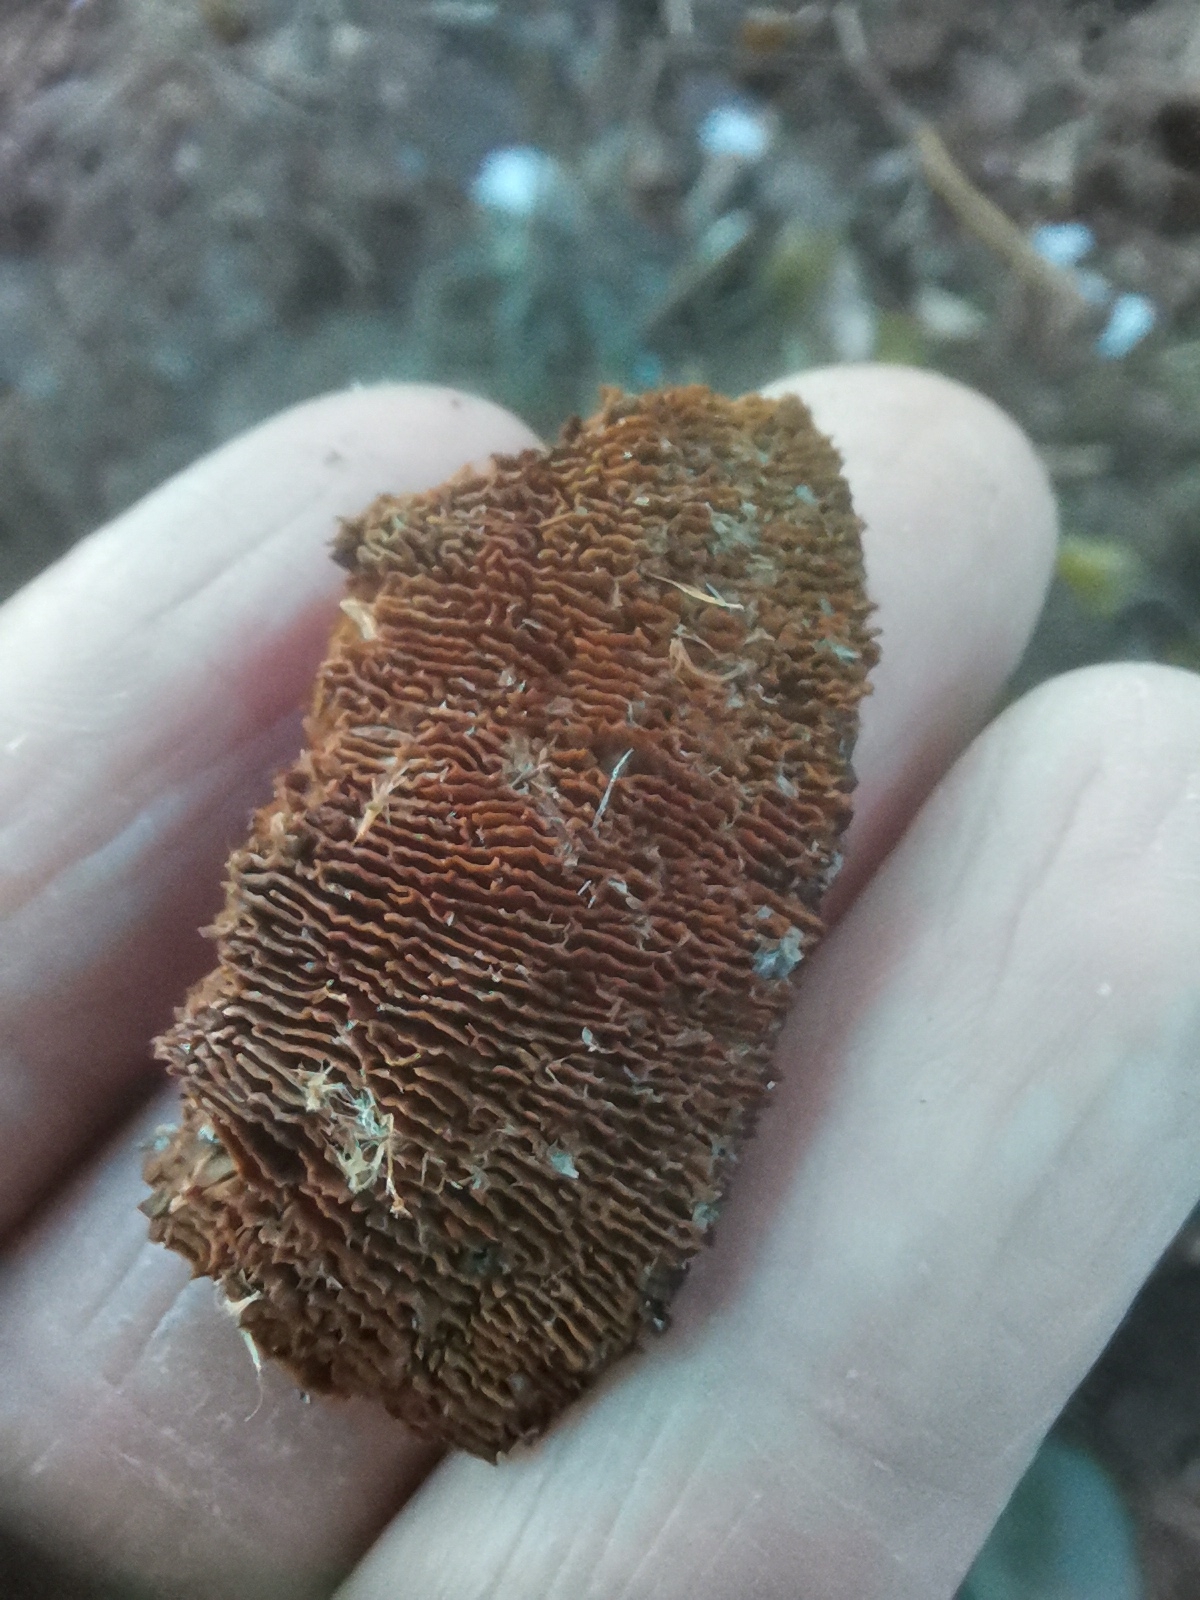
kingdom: Fungi
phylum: Basidiomycota
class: Agaricomycetes
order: Gloeophyllales
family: Gloeophyllaceae
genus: Gloeophyllum
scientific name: Gloeophyllum sepiarium
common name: Conifer mazegill
